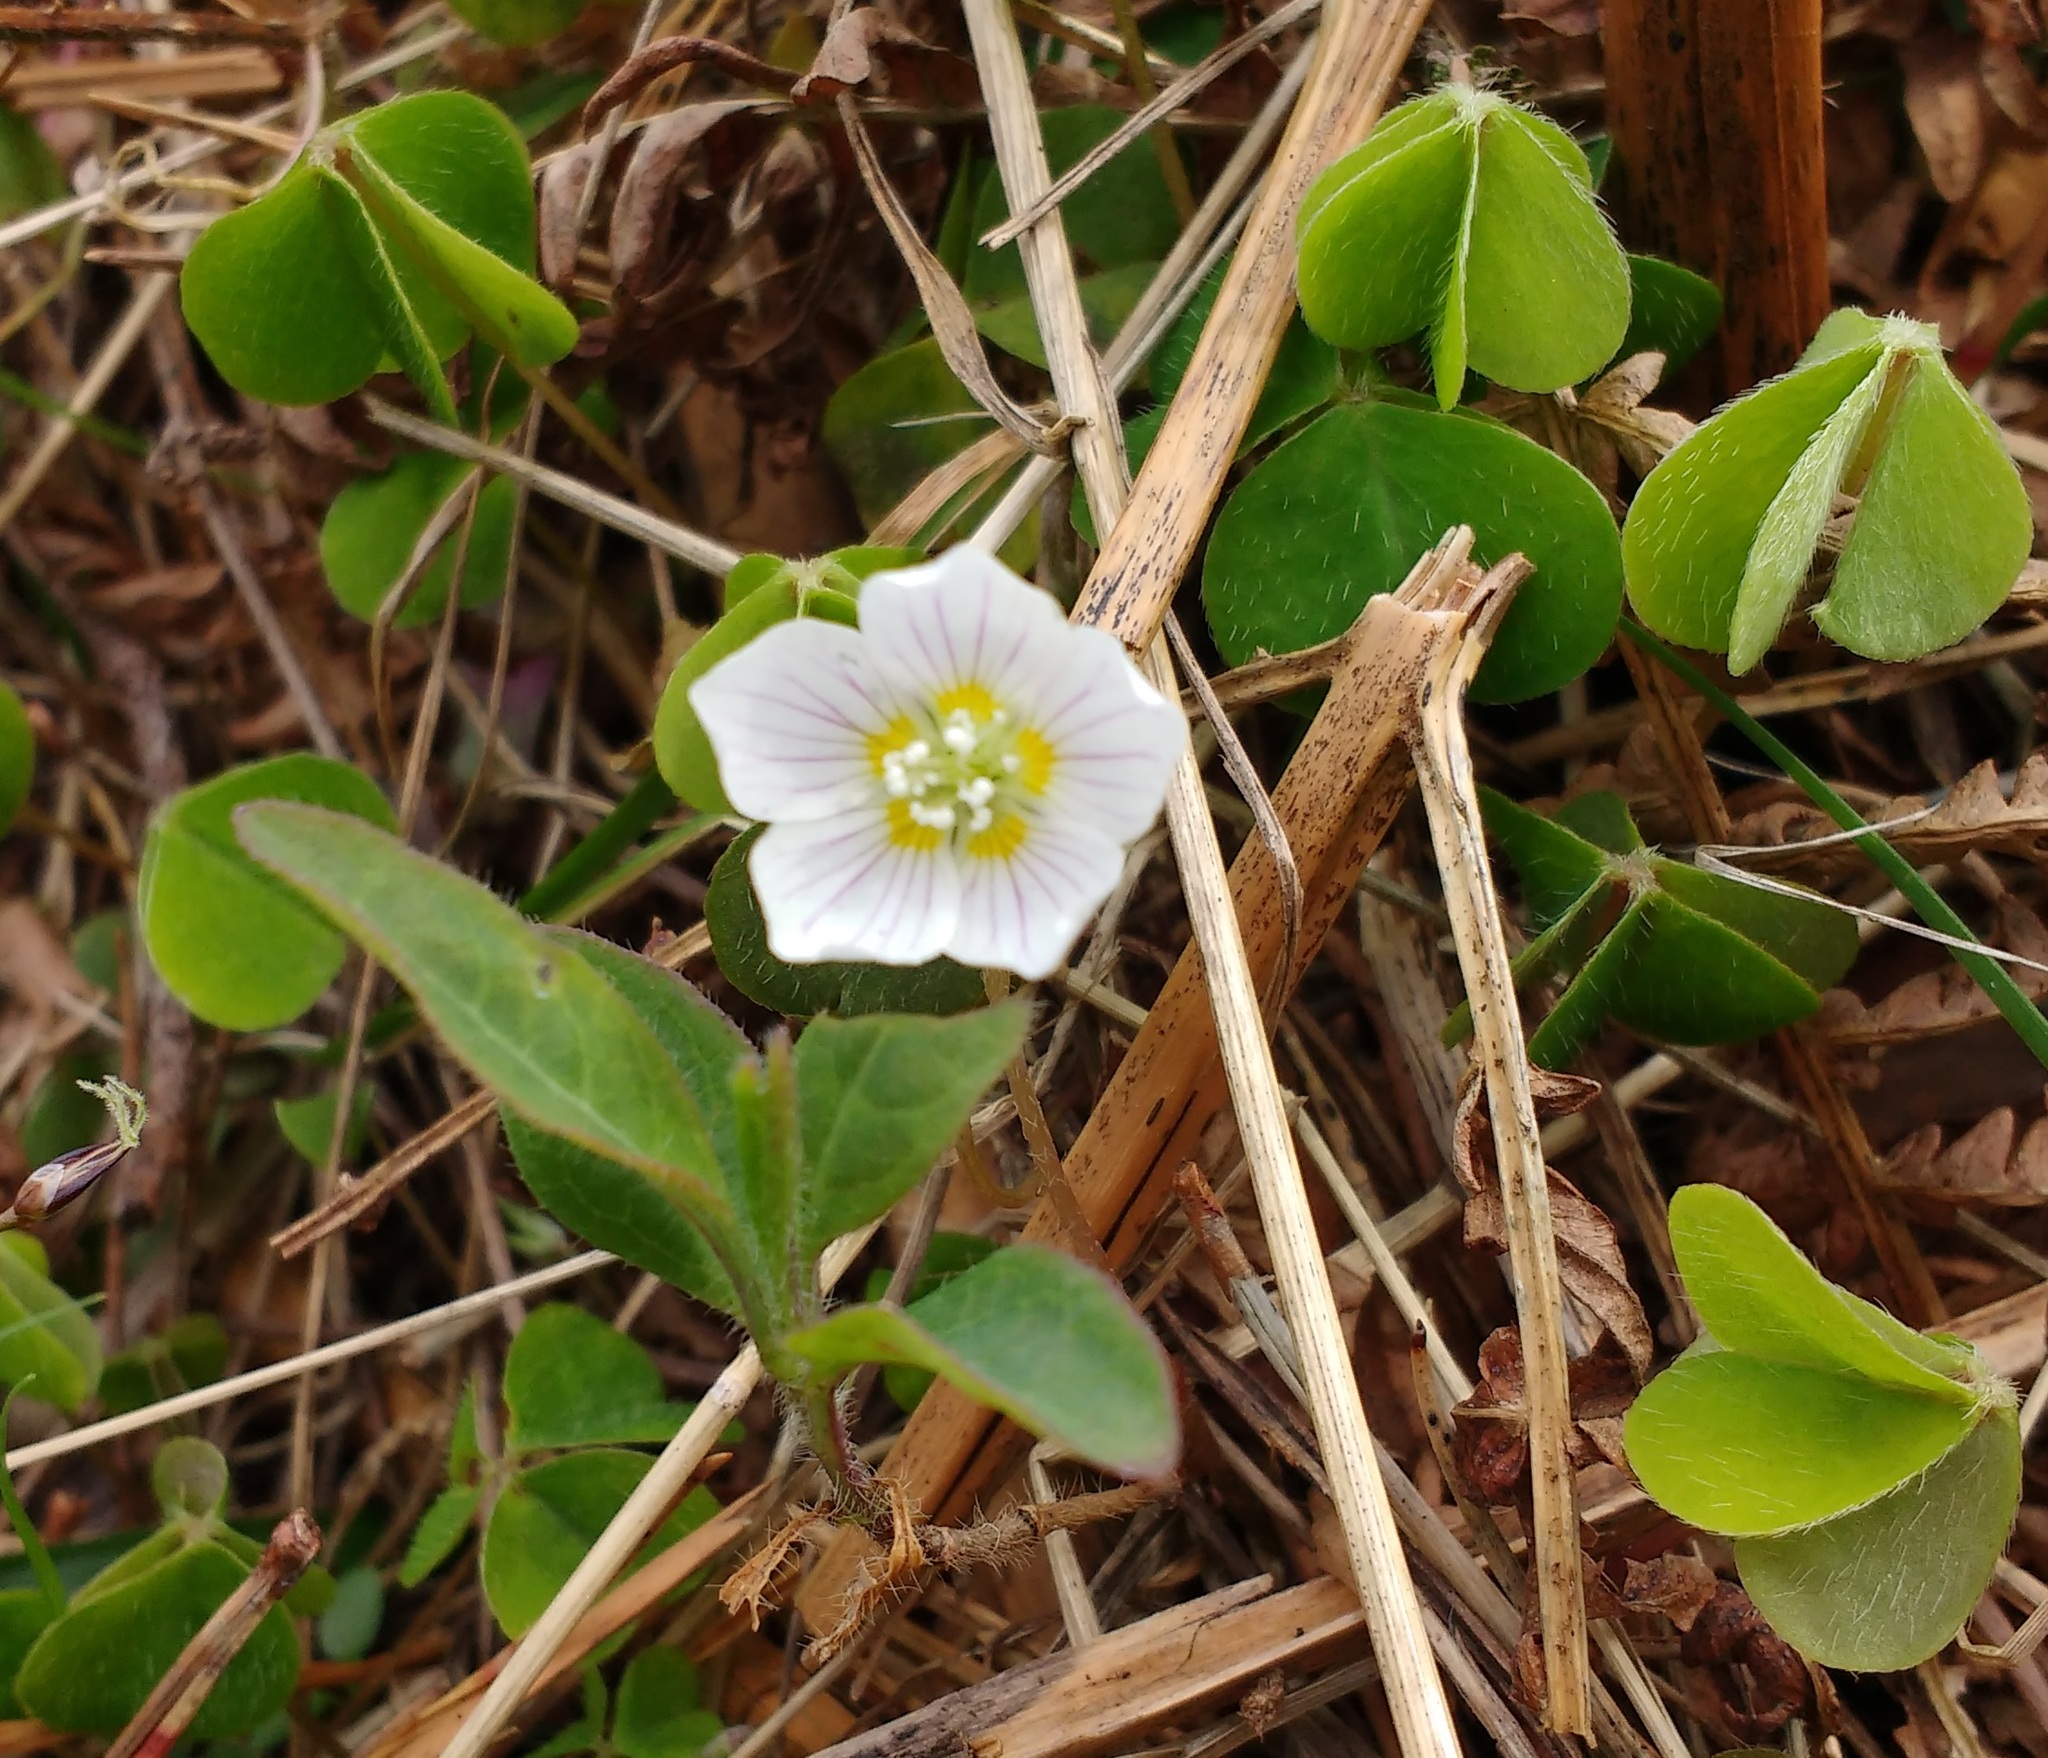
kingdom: Plantae
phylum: Tracheophyta
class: Magnoliopsida
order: Oxalidales
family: Oxalidaceae
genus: Oxalis
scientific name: Oxalis acetosella
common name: Wood-sorrel
